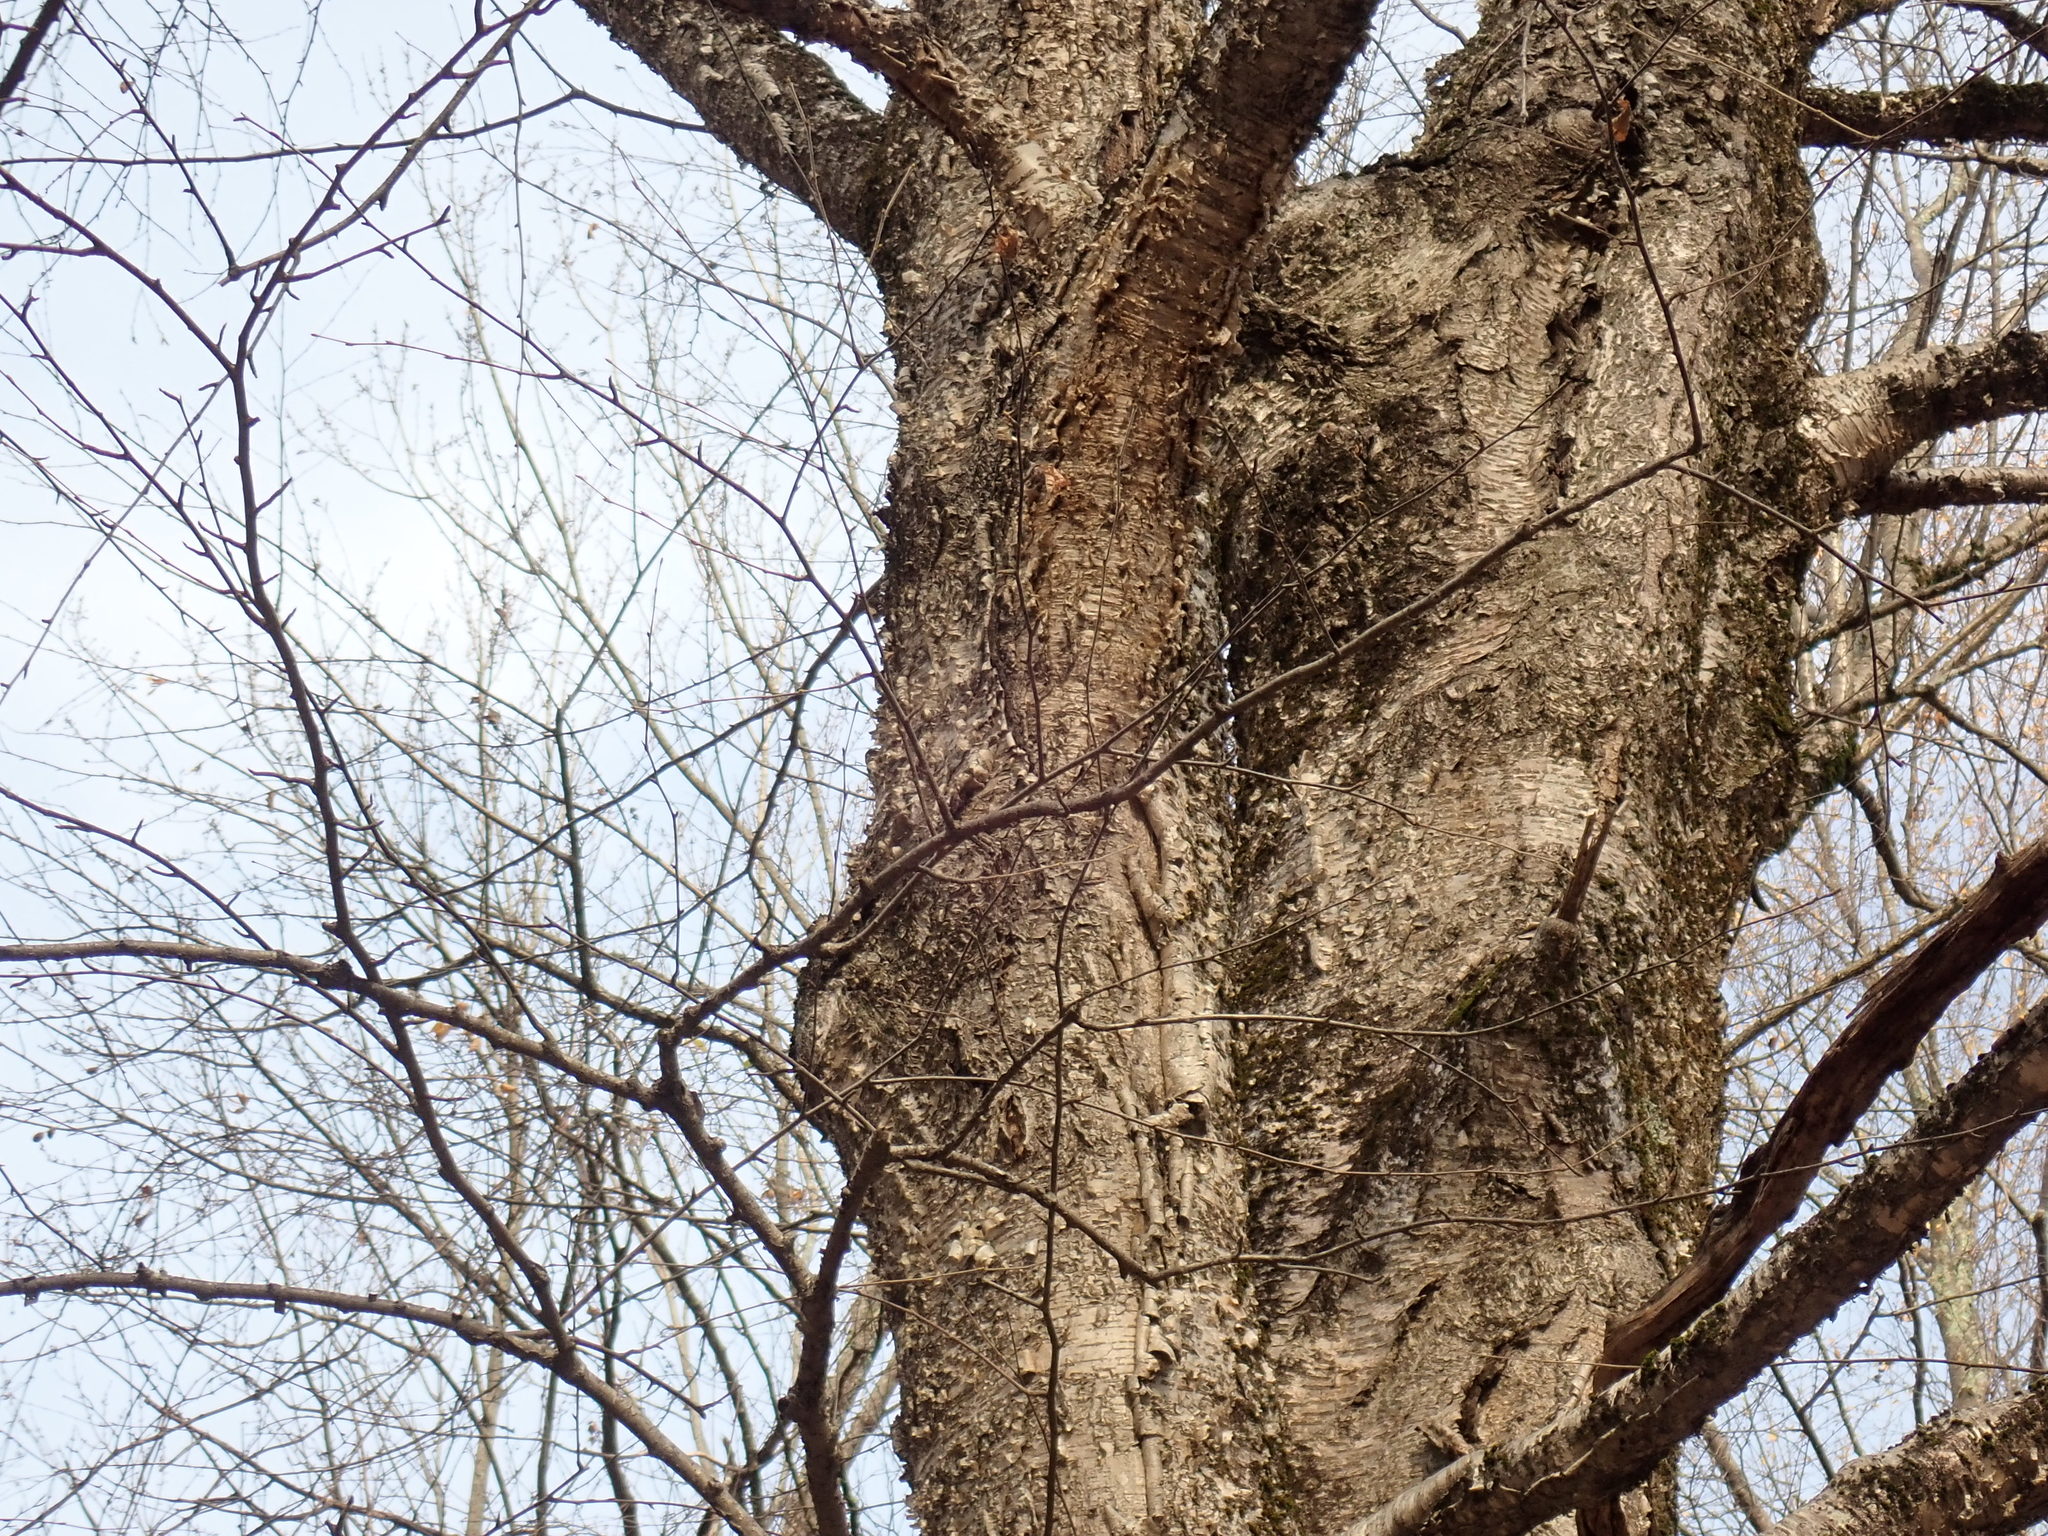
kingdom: Plantae
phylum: Tracheophyta
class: Magnoliopsida
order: Fagales
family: Betulaceae
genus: Betula
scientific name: Betula alleghaniensis
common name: Yellow birch
